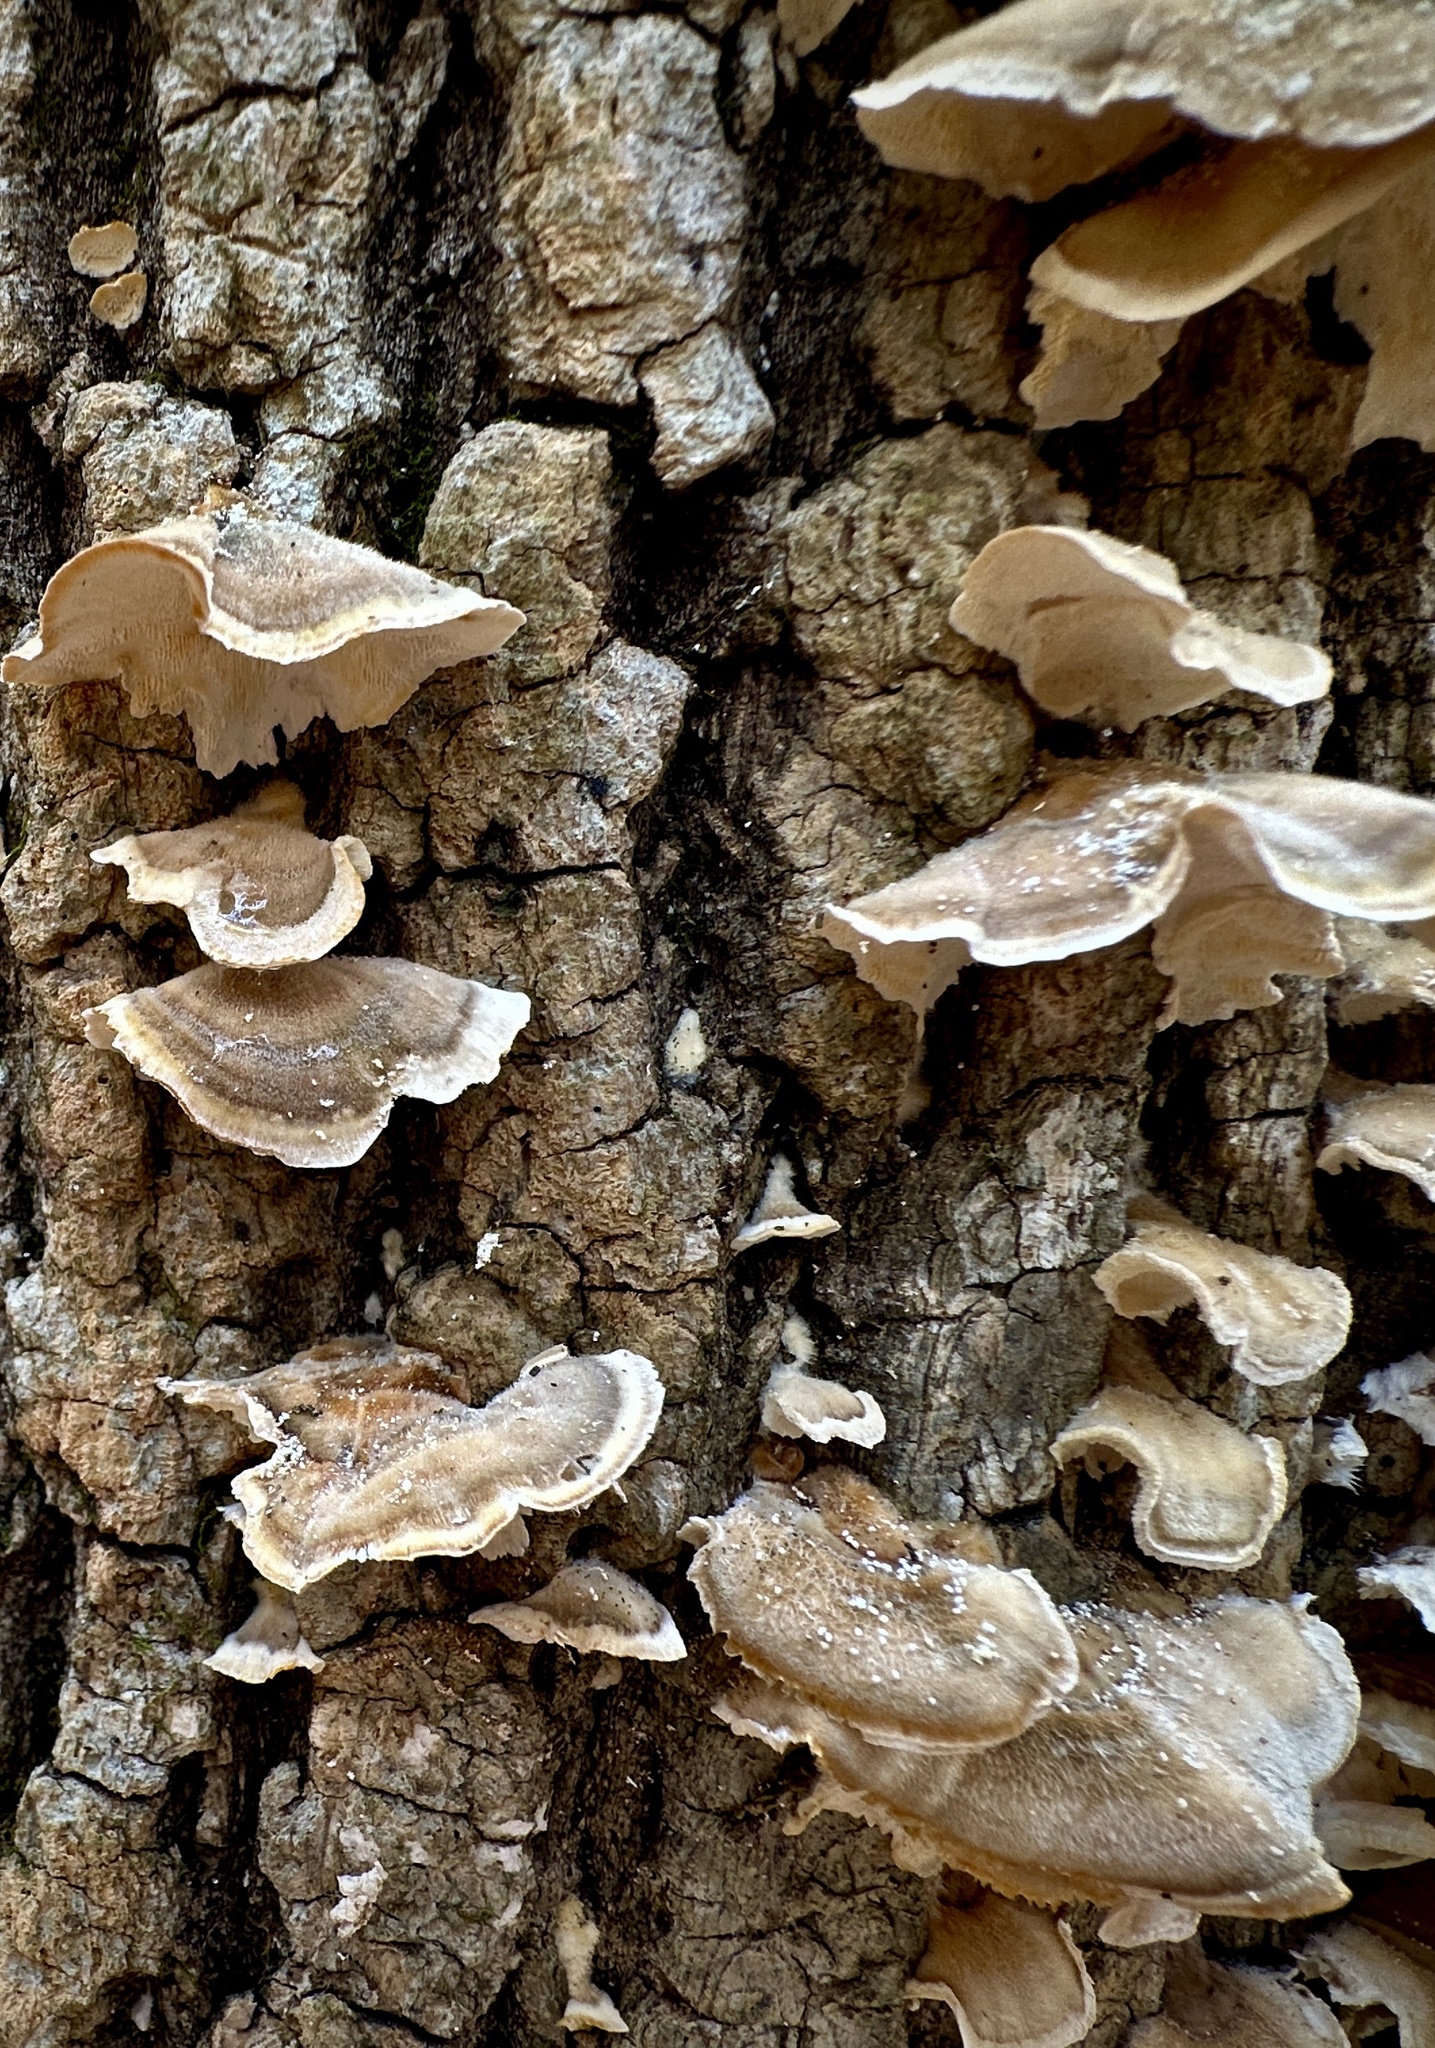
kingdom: Fungi
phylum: Basidiomycota
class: Agaricomycetes
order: Polyporales
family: Polyporaceae
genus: Trametes
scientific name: Trametes versicolor
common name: Turkeytail
